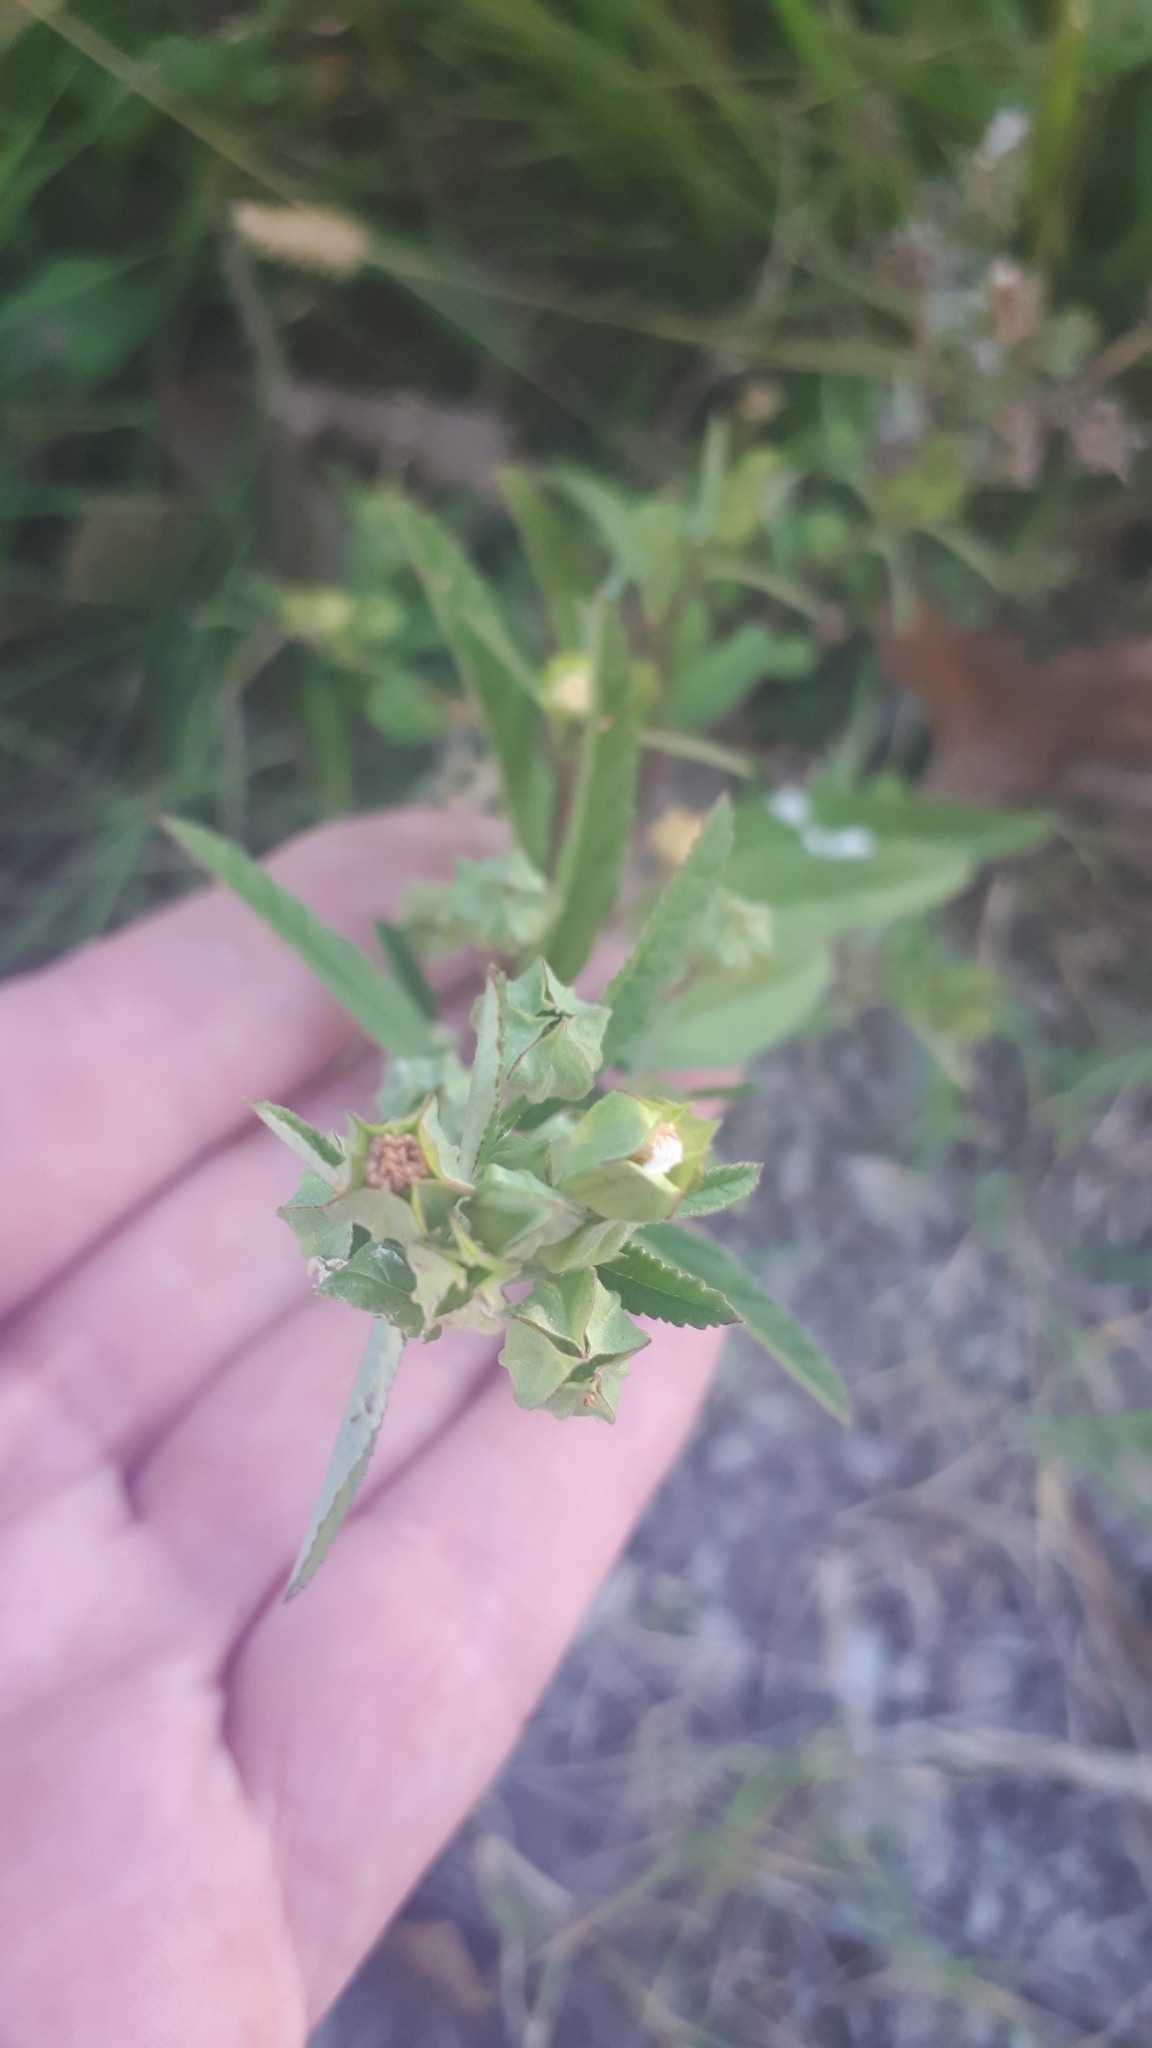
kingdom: Plantae
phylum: Tracheophyta
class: Magnoliopsida
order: Malvales
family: Malvaceae
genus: Sida
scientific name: Sida rhombifolia
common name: Queensland-hemp
